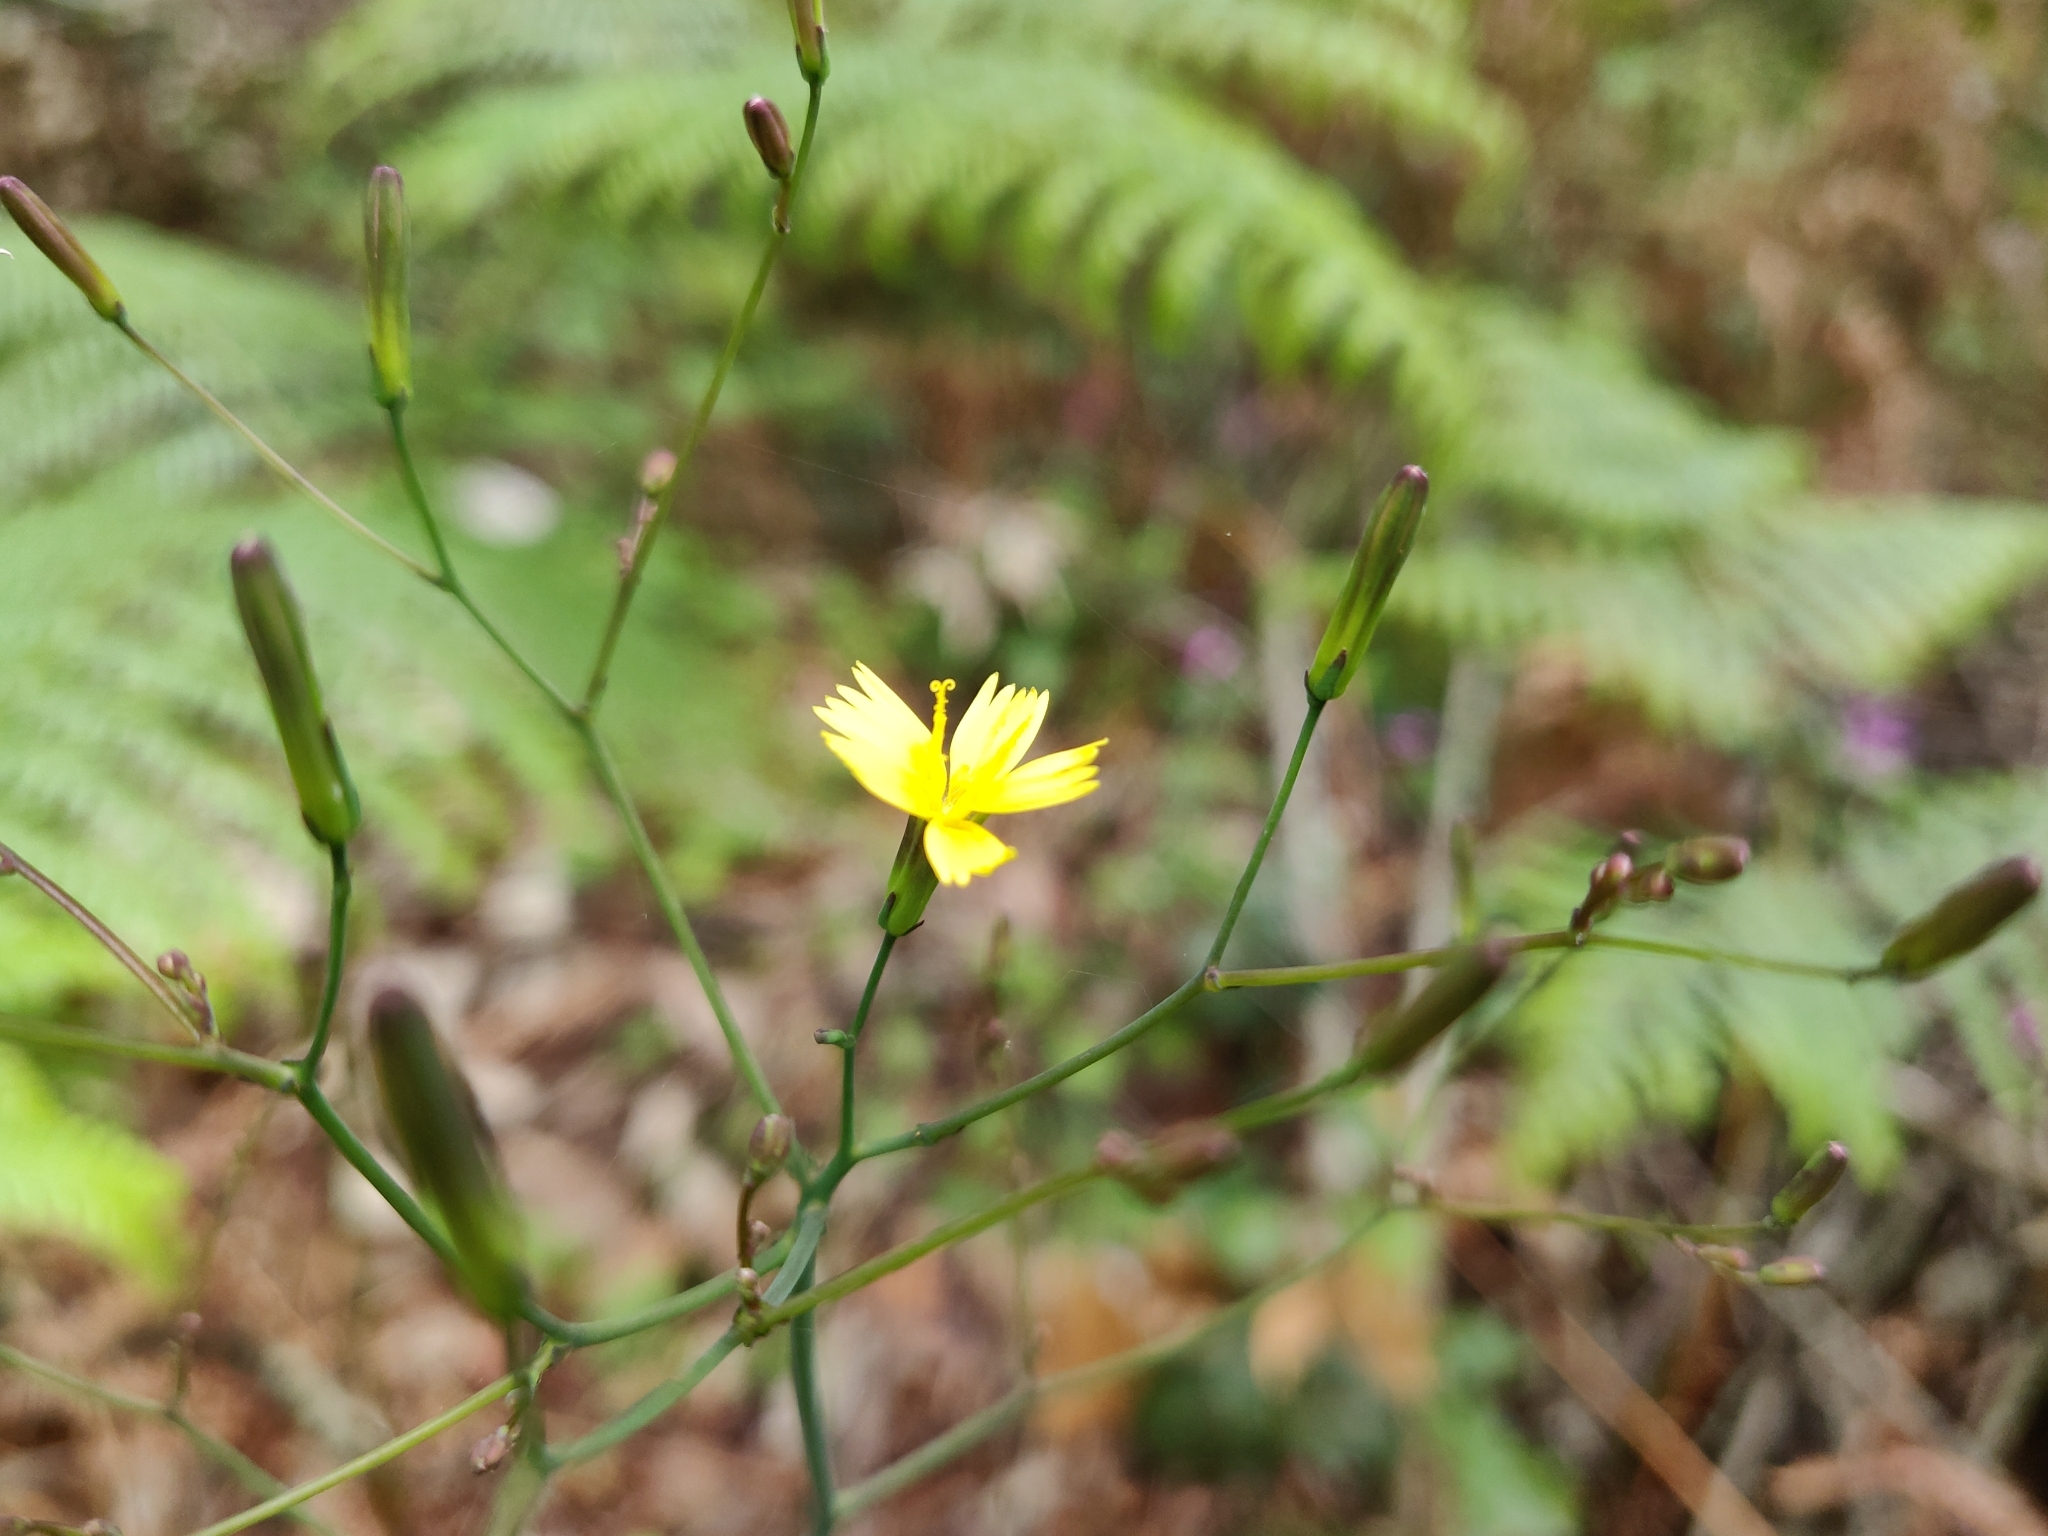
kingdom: Plantae
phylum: Tracheophyta
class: Magnoliopsida
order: Asterales
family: Asteraceae
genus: Mycelis
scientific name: Mycelis muralis
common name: Wall lettuce
